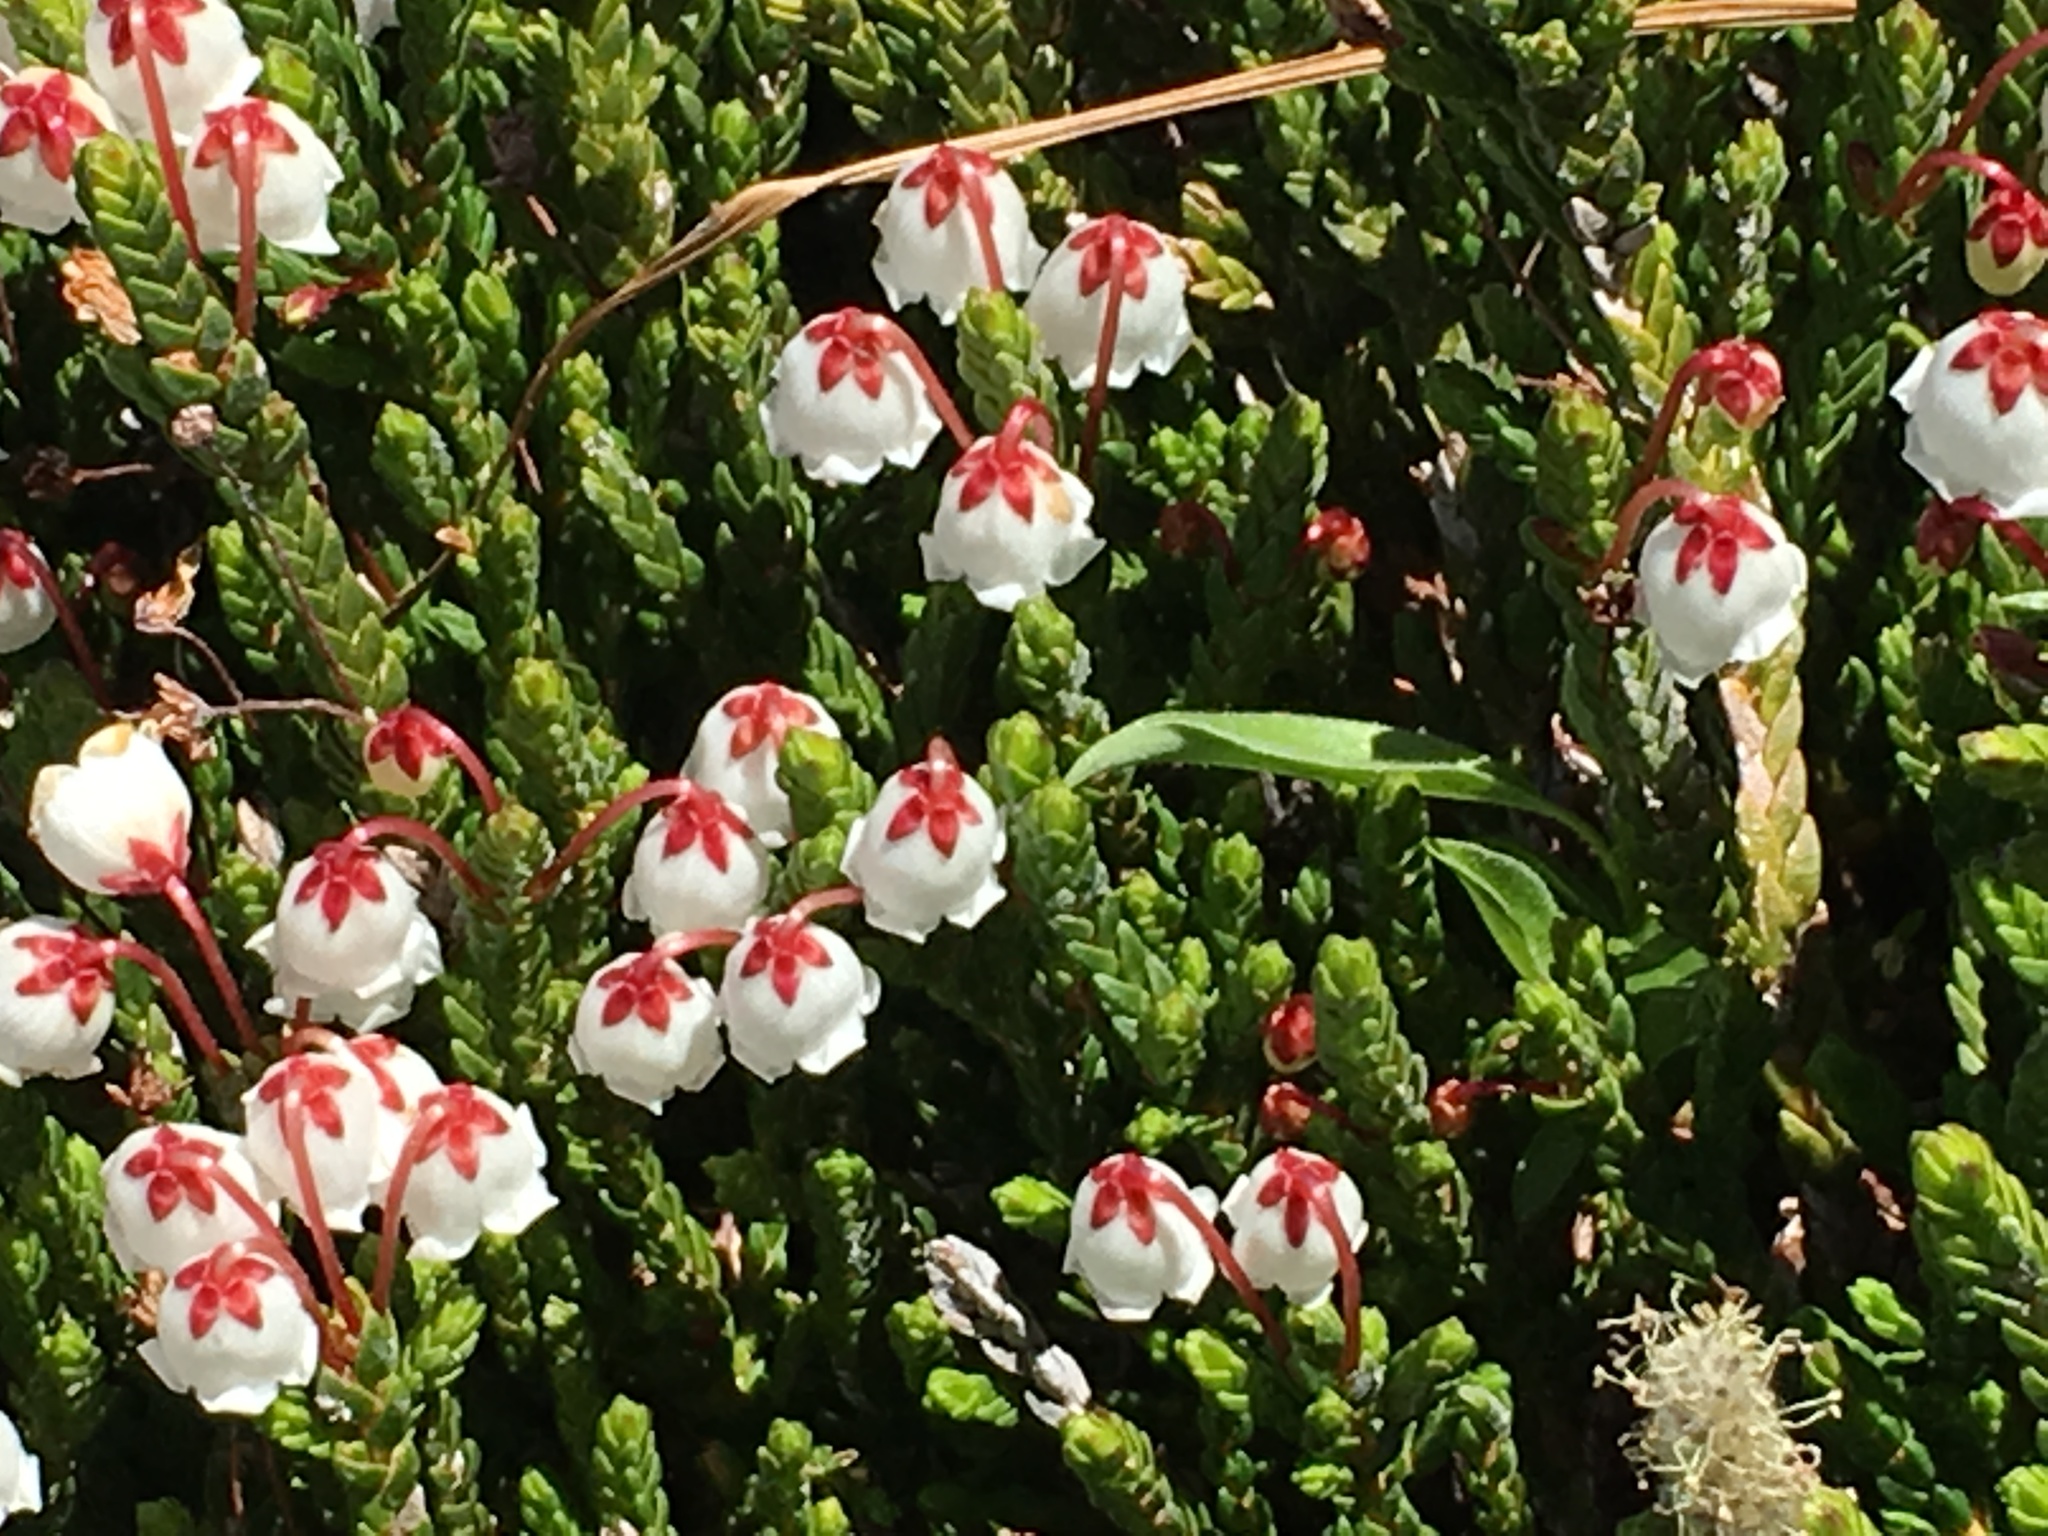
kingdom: Plantae
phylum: Tracheophyta
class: Magnoliopsida
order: Ericales
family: Ericaceae
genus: Cassiope
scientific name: Cassiope mertensiana
